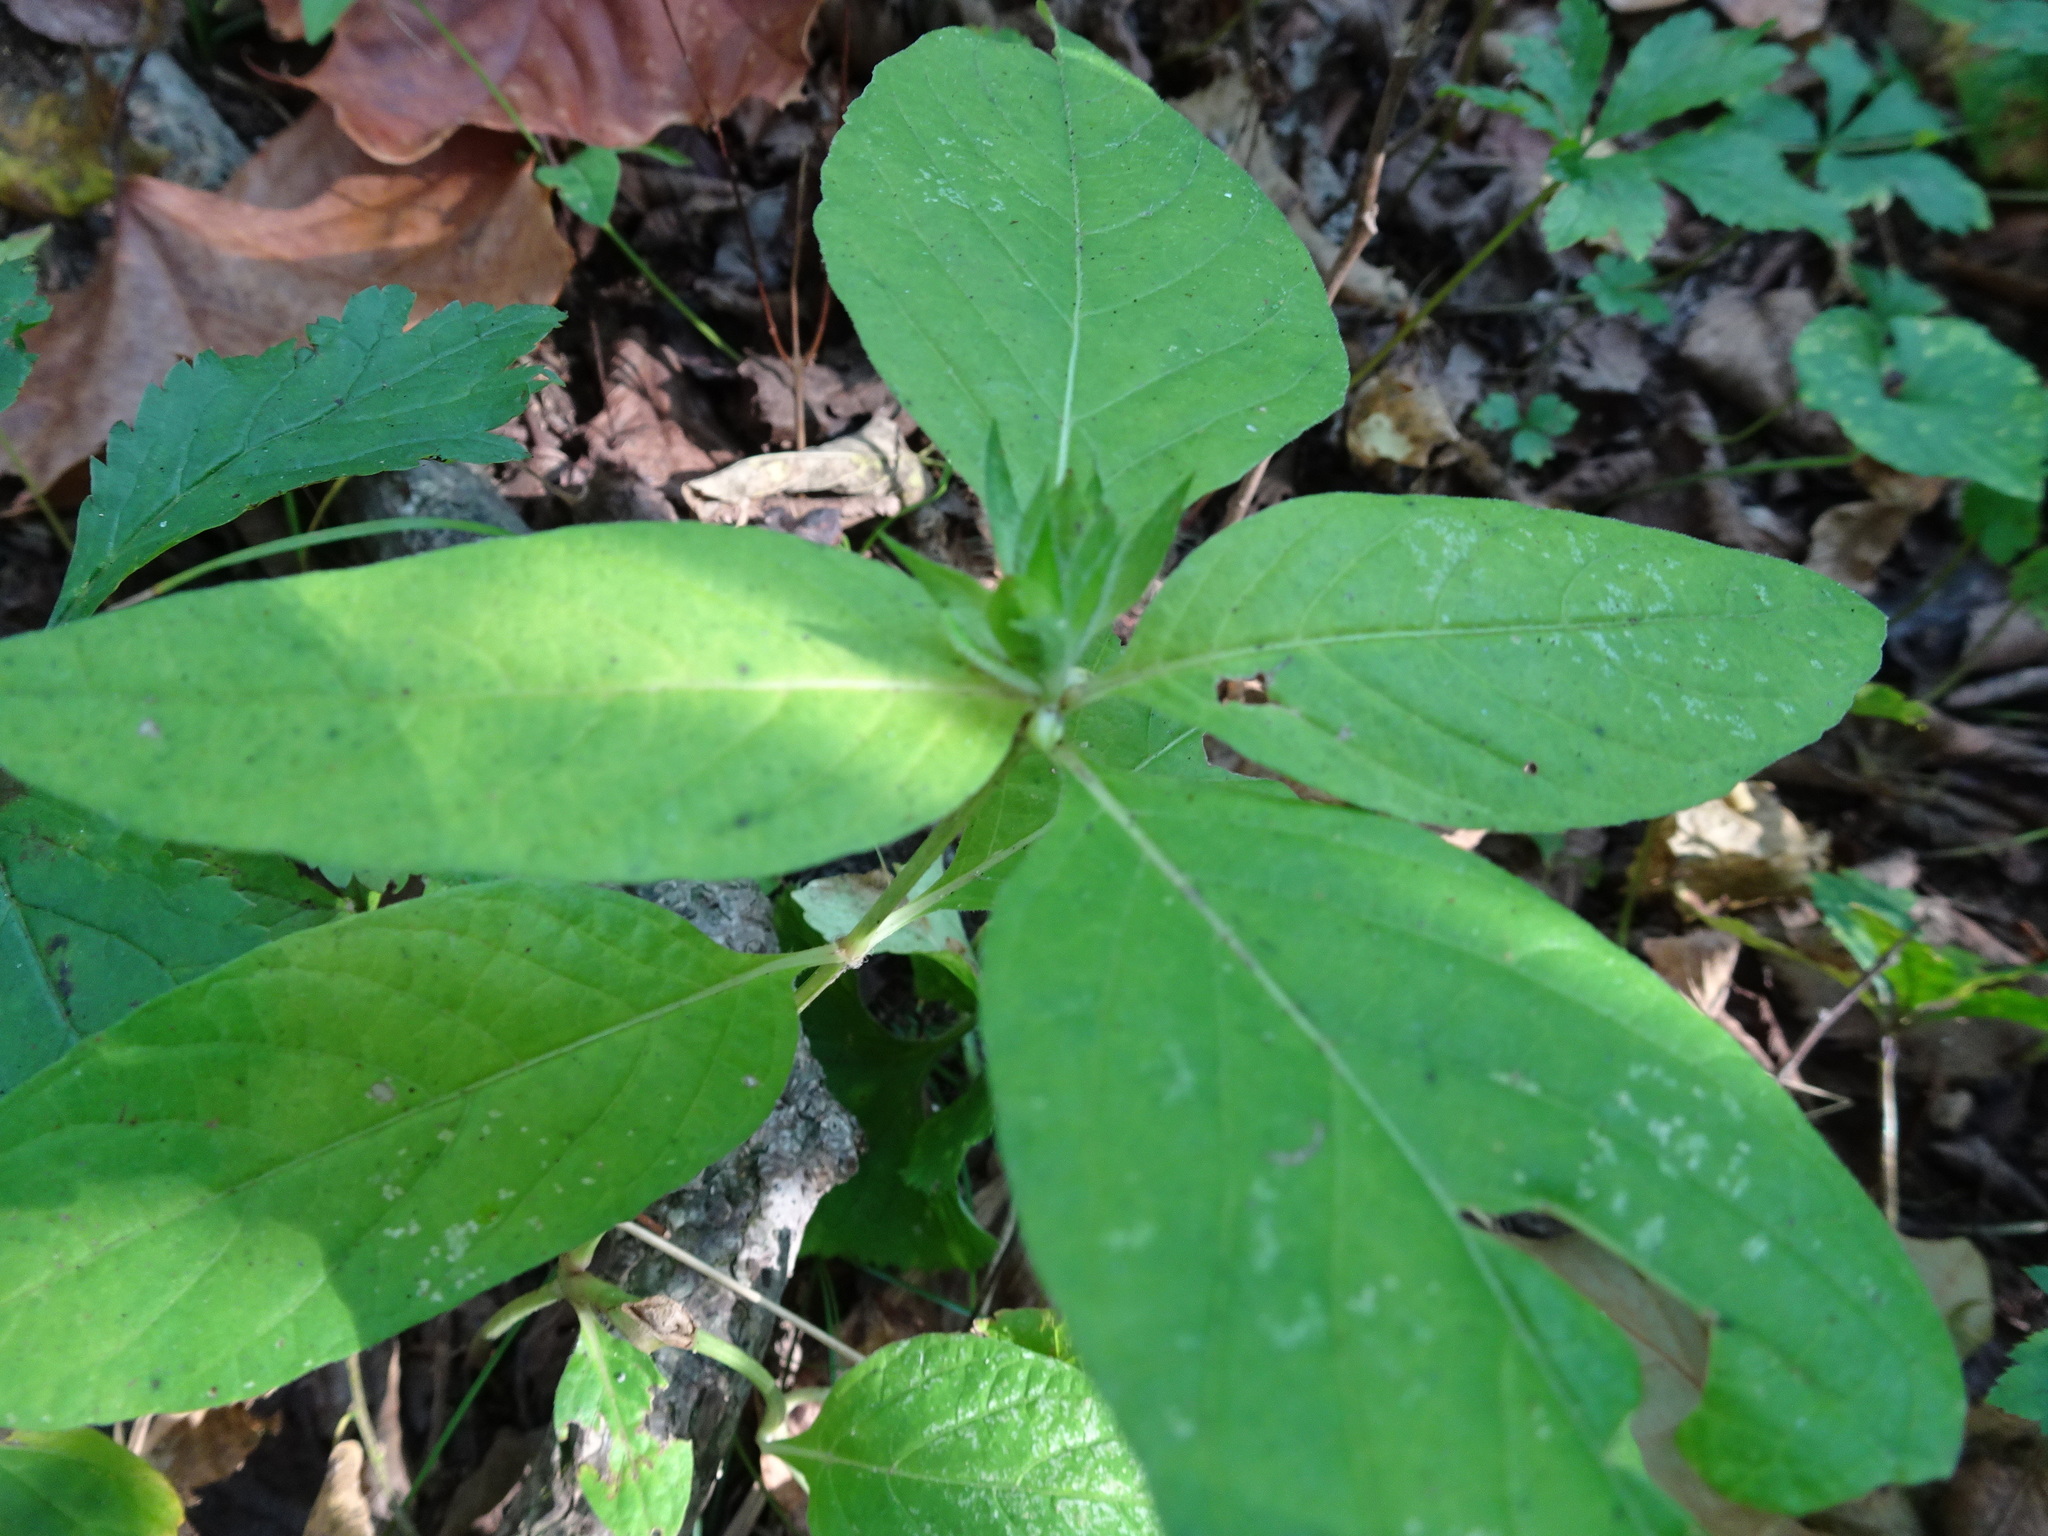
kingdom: Plantae
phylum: Tracheophyta
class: Magnoliopsida
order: Lamiales
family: Acanthaceae
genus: Ruellia
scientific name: Ruellia strepens
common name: Limestone wild petunia
